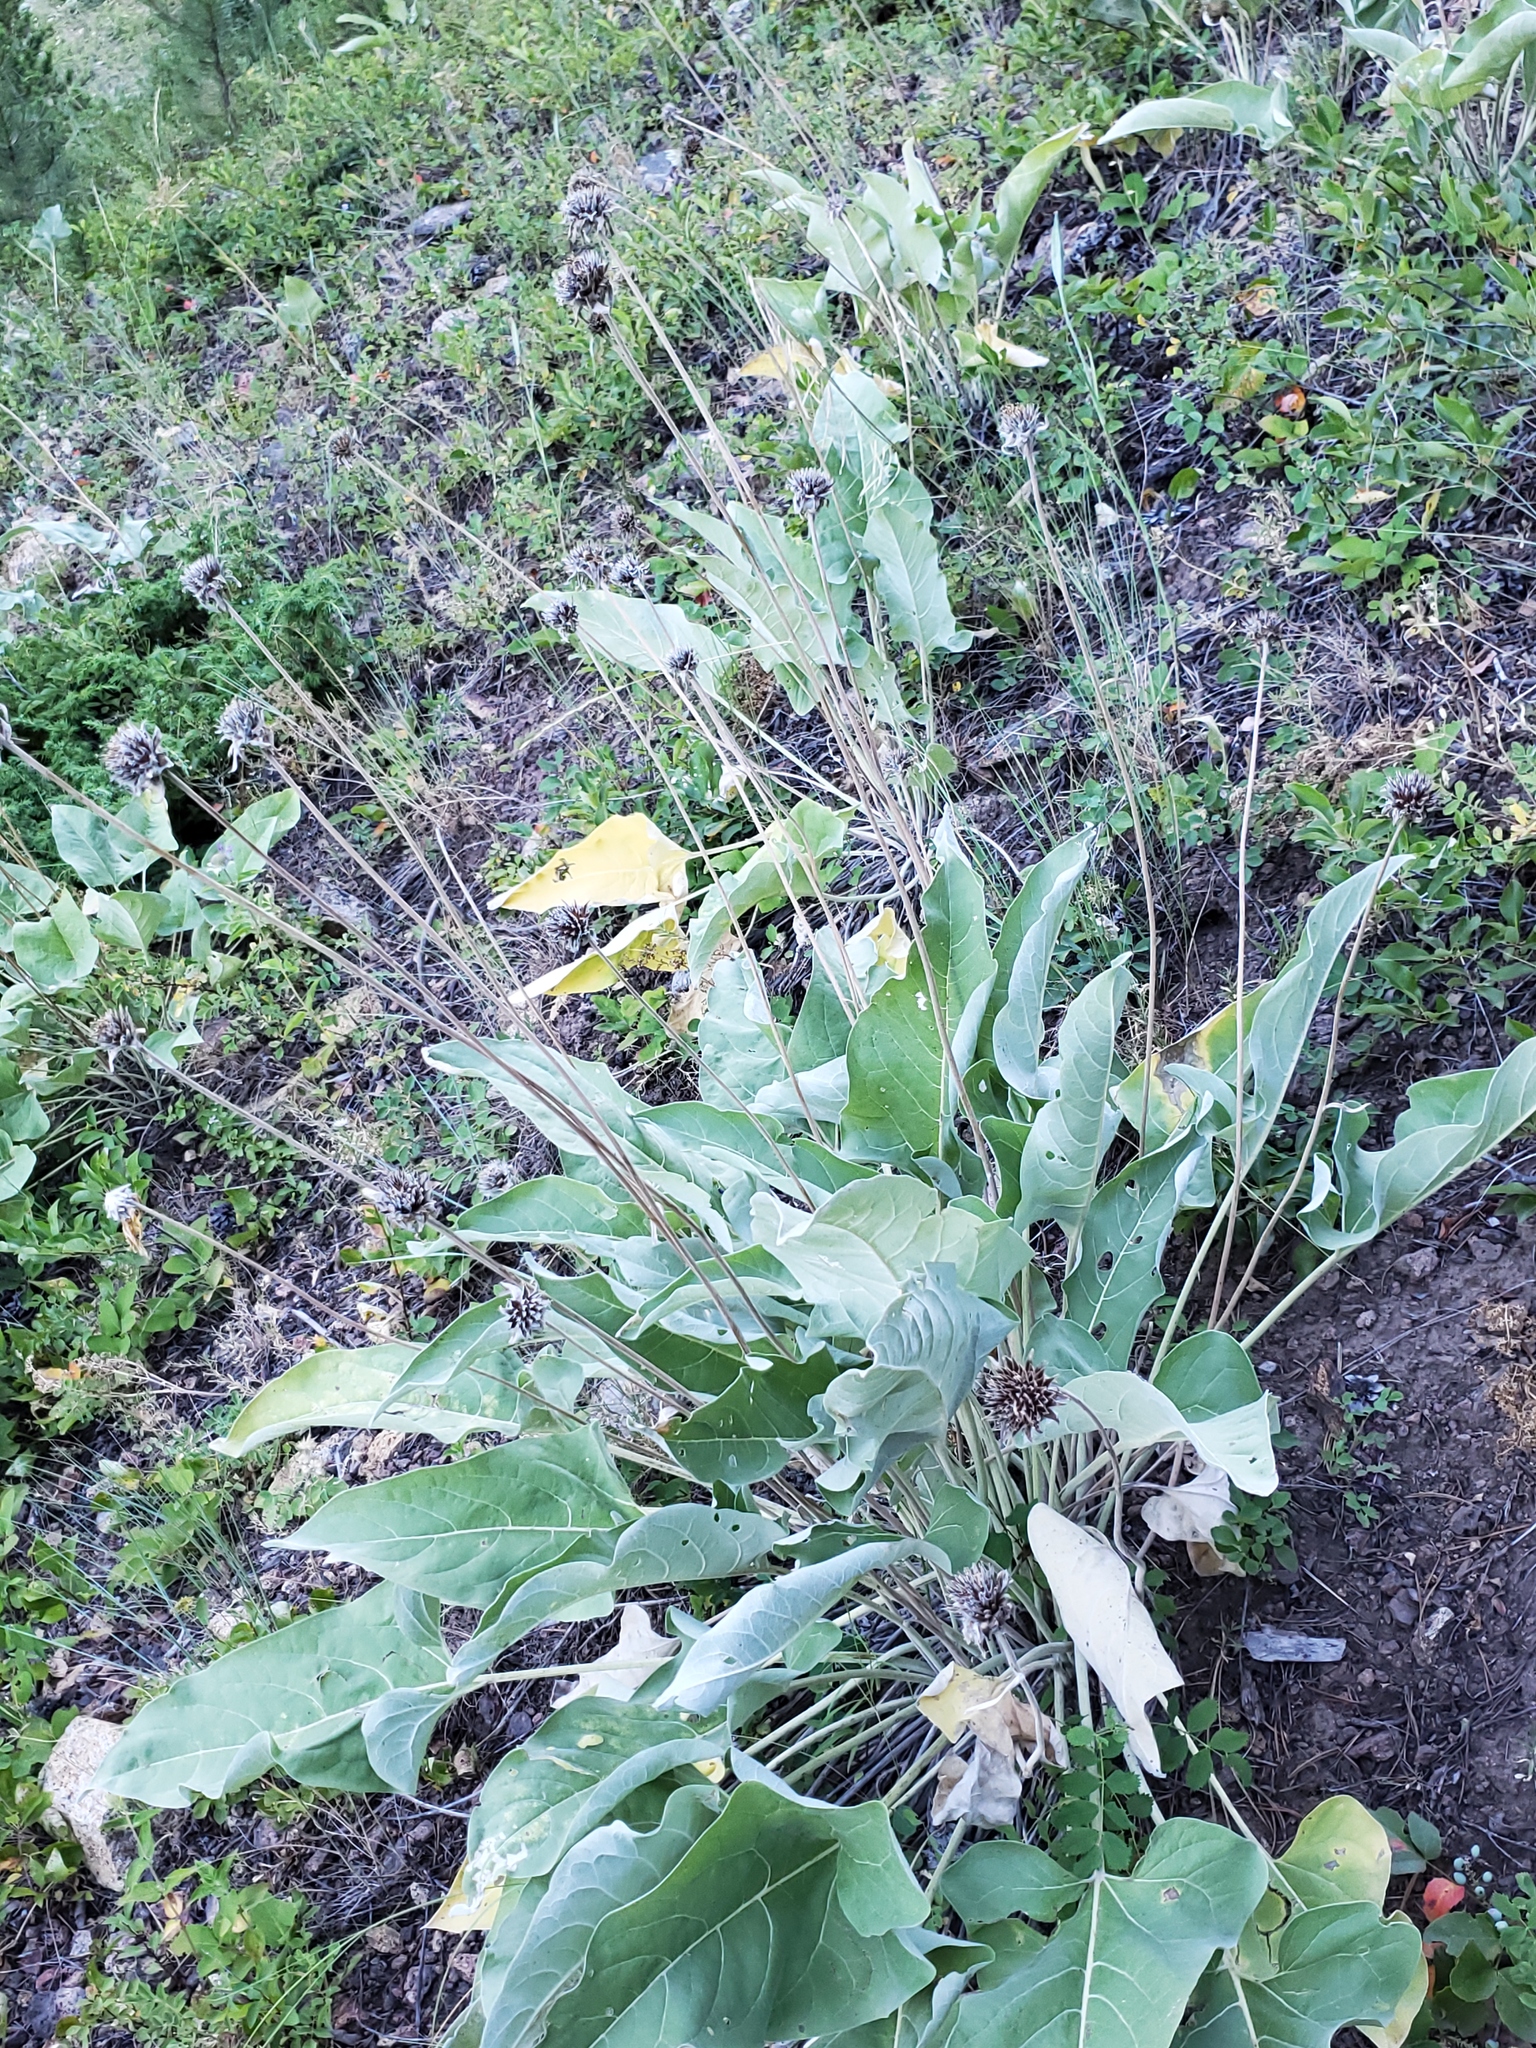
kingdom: Plantae
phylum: Tracheophyta
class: Magnoliopsida
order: Asterales
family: Asteraceae
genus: Wyethia
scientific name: Wyethia sagittata
